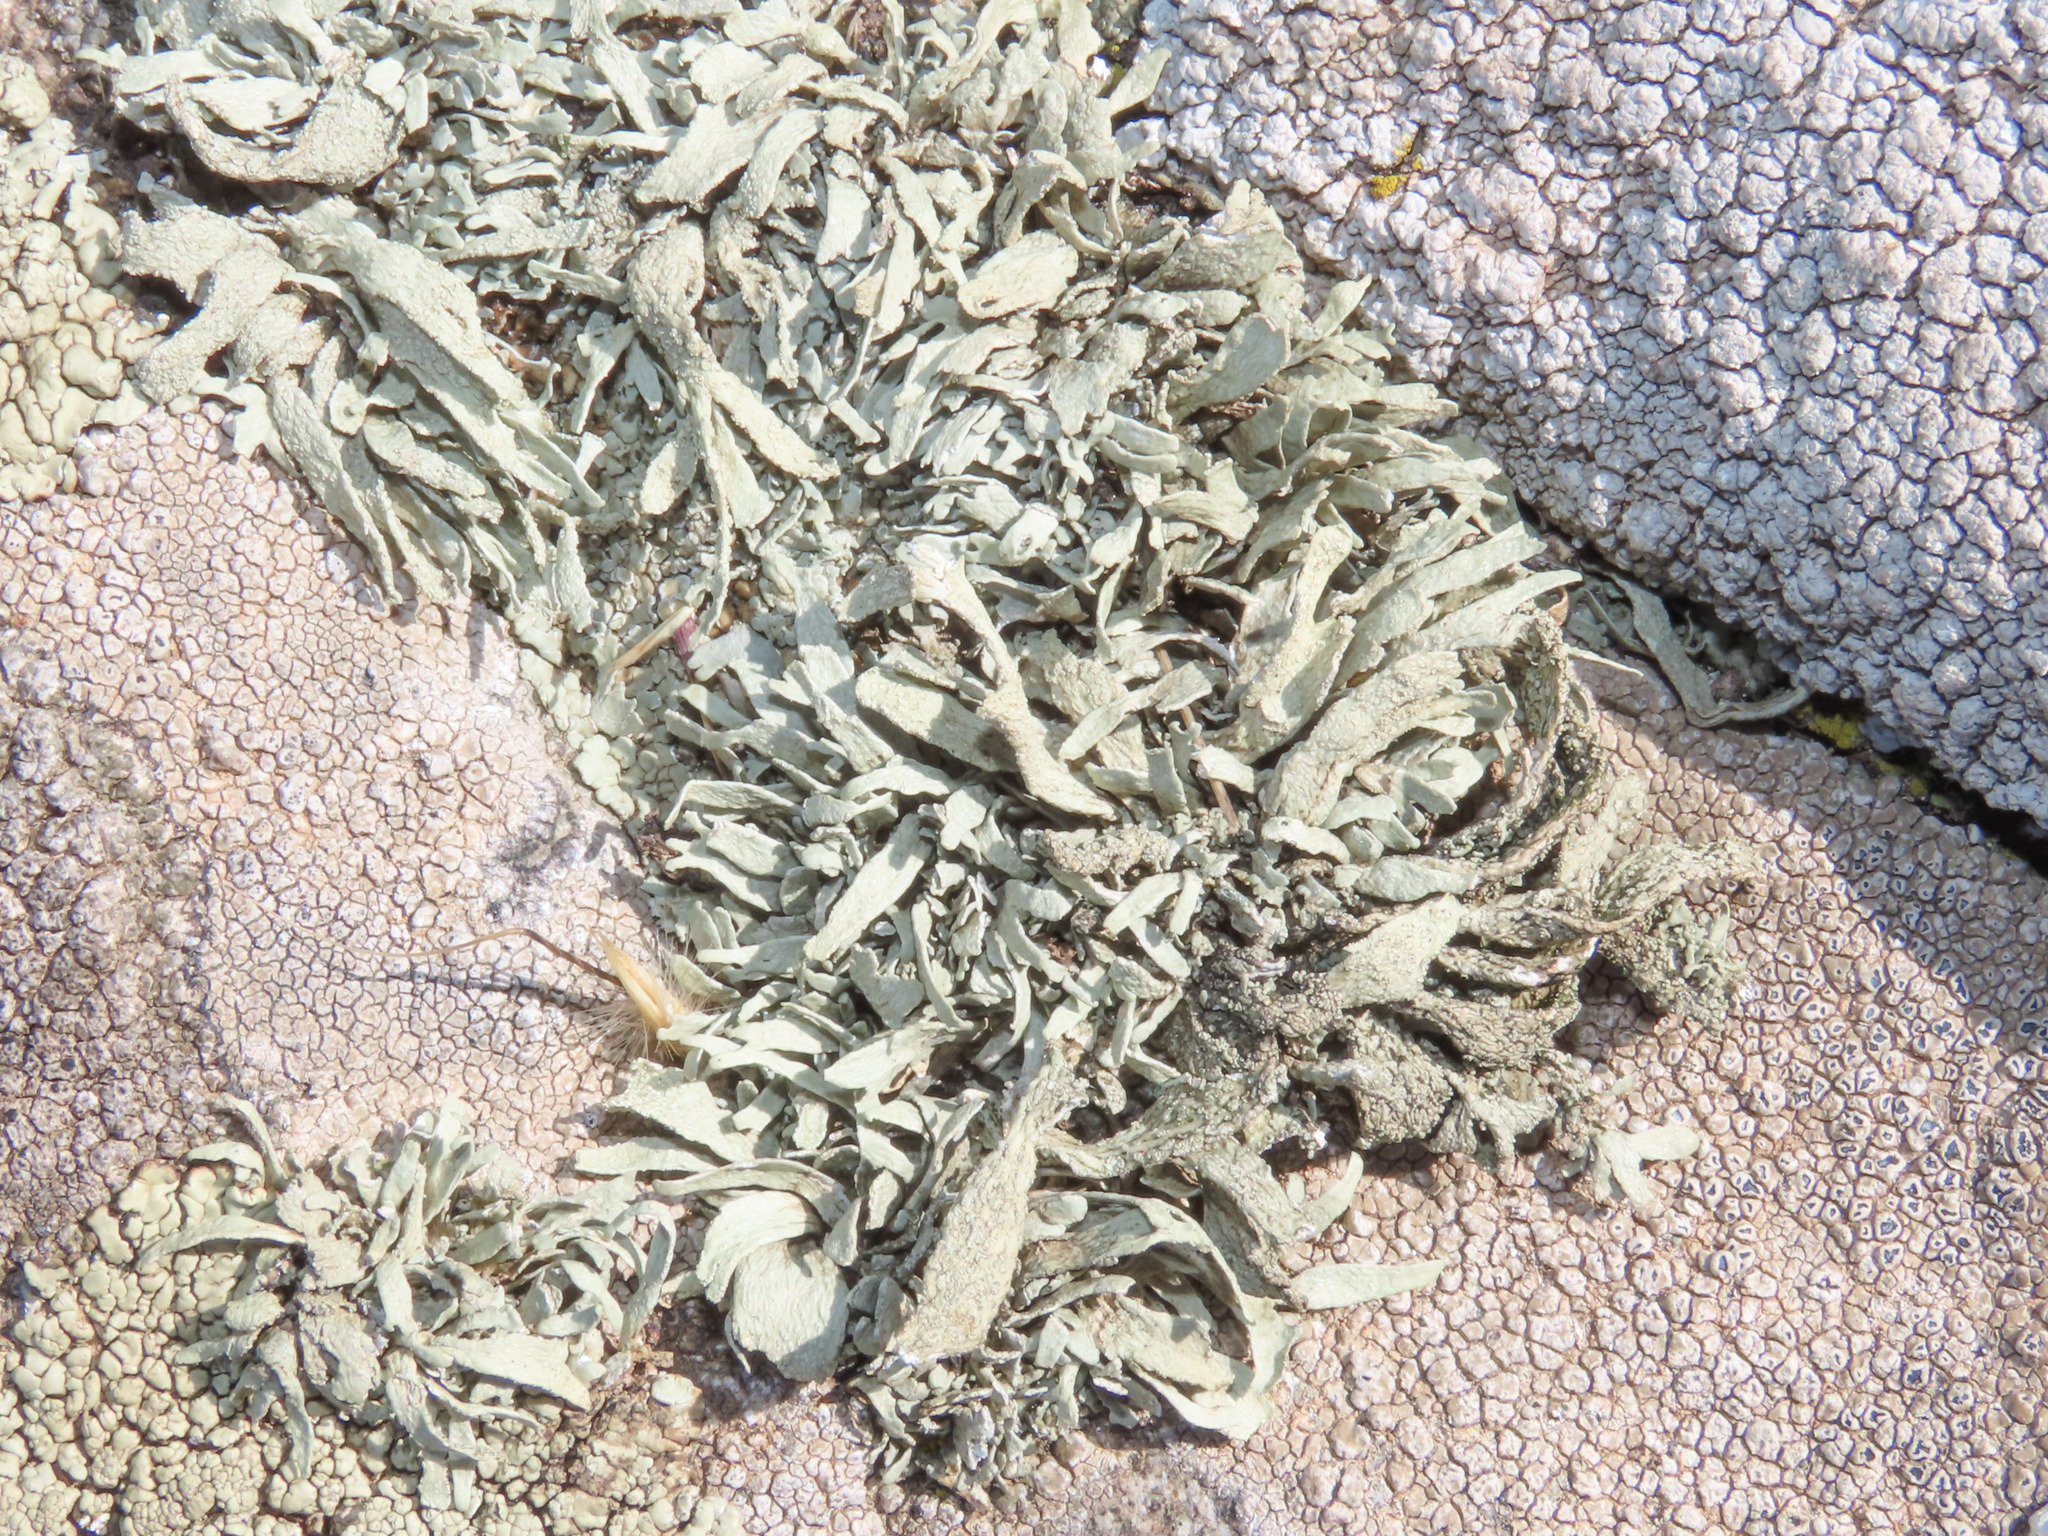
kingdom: Fungi
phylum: Ascomycota
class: Lecanoromycetes
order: Lecanorales
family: Ramalinaceae
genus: Ramalina
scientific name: Ramalina polymorpha
